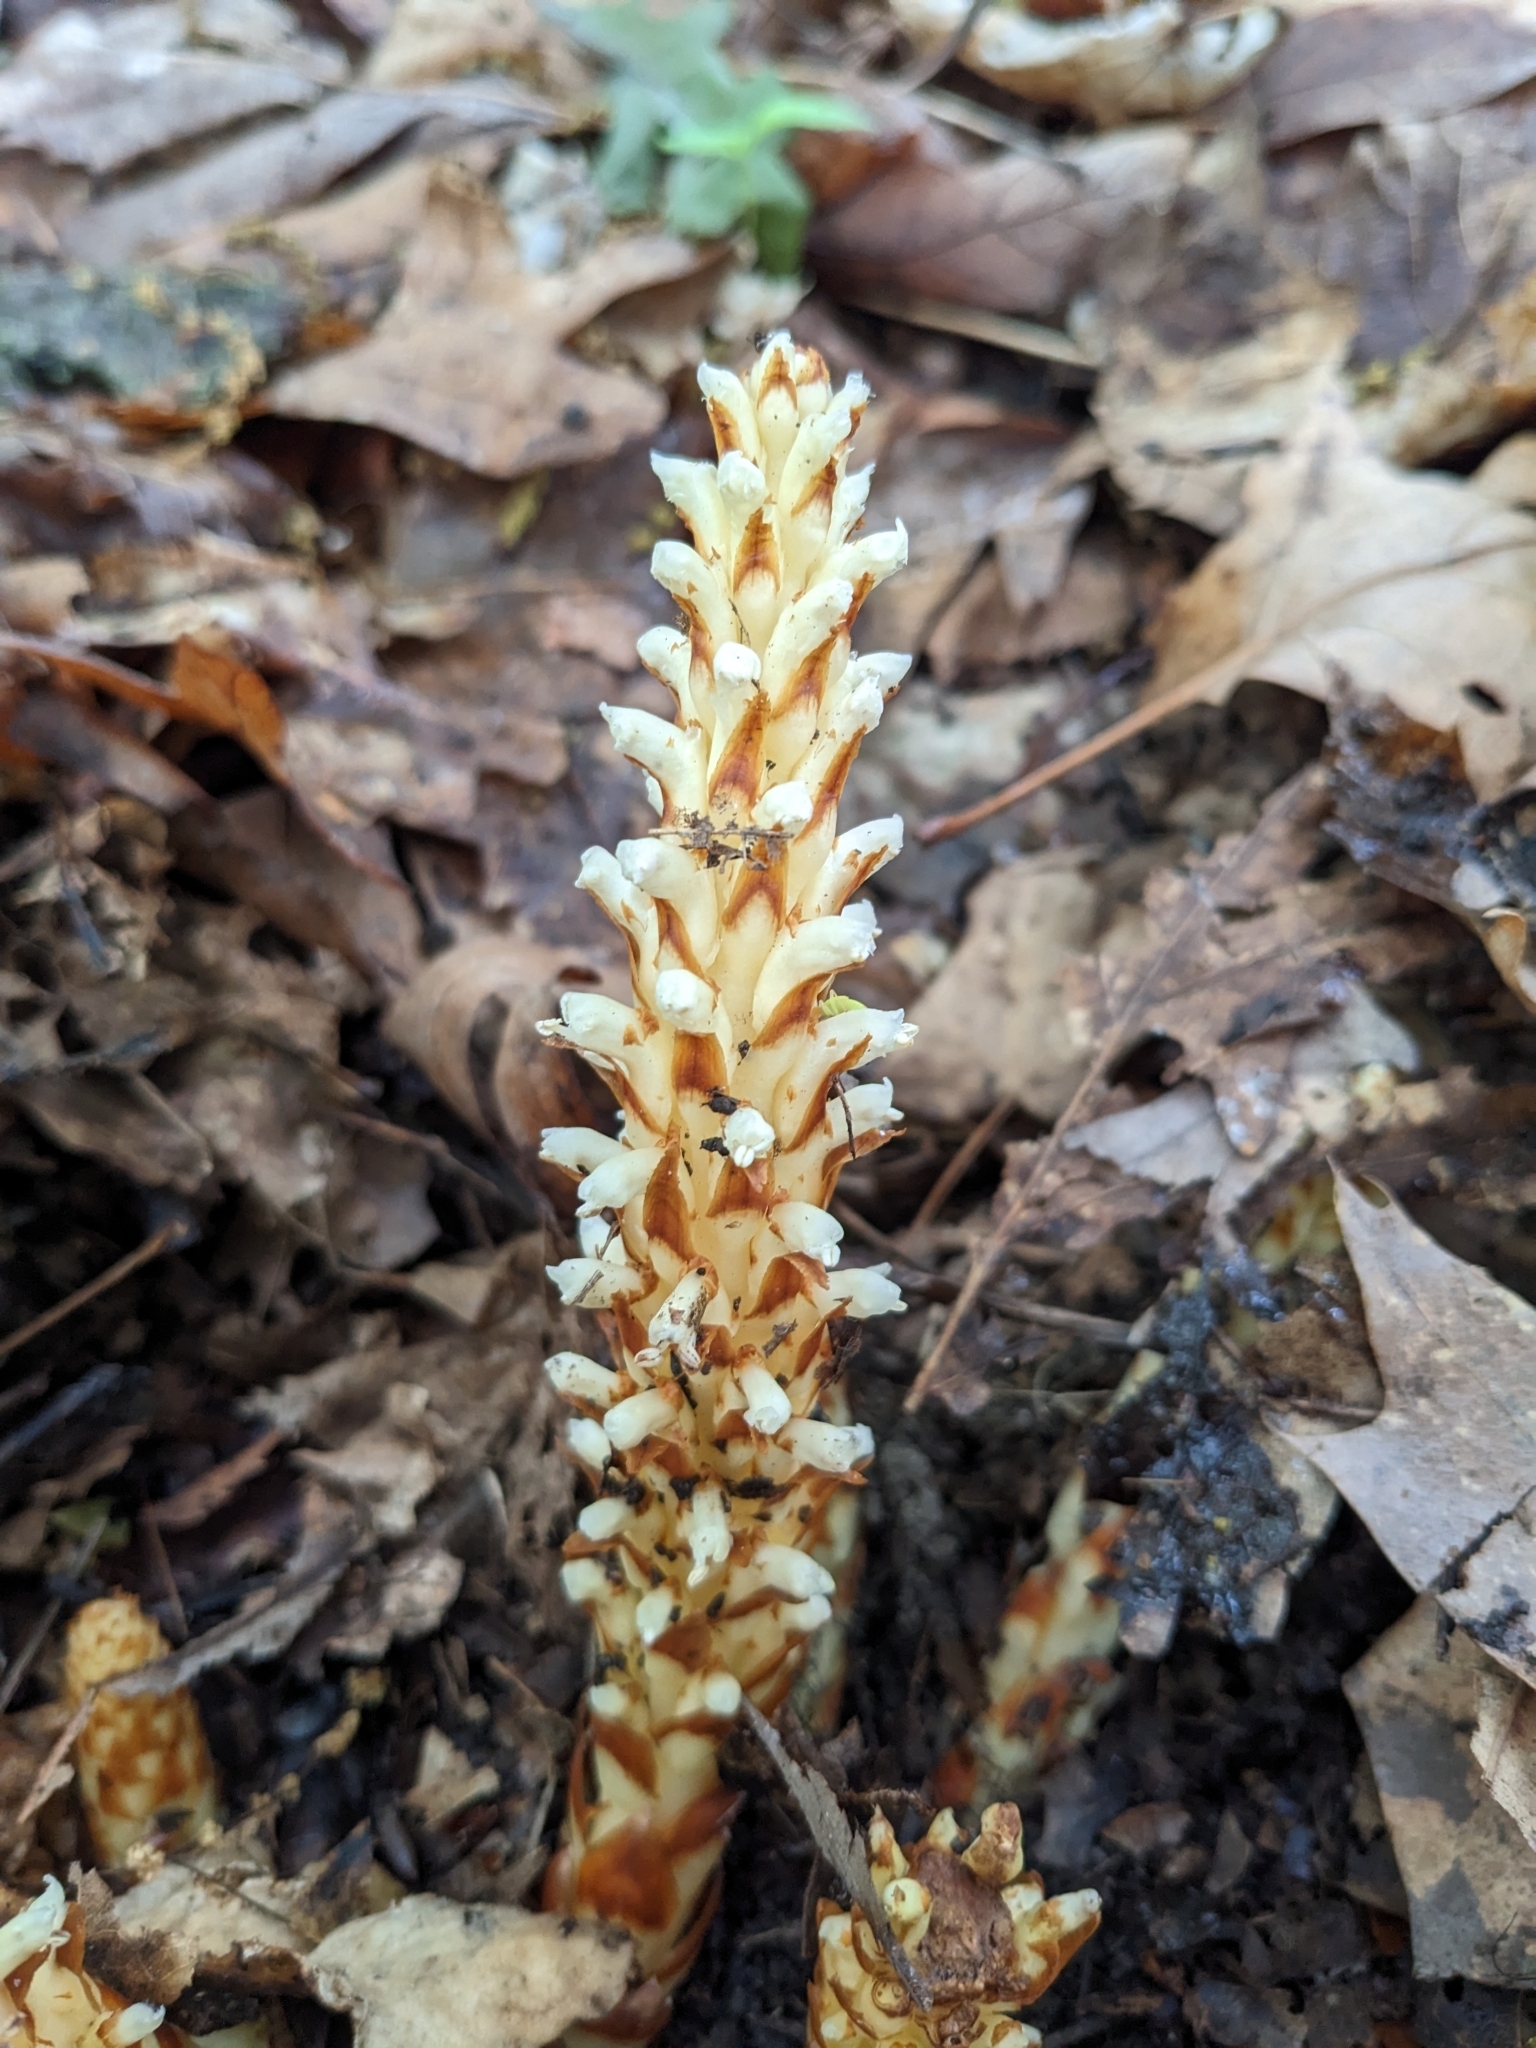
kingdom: Plantae
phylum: Tracheophyta
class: Magnoliopsida
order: Lamiales
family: Orobanchaceae
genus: Conopholis
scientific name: Conopholis americana
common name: American cancer-root
